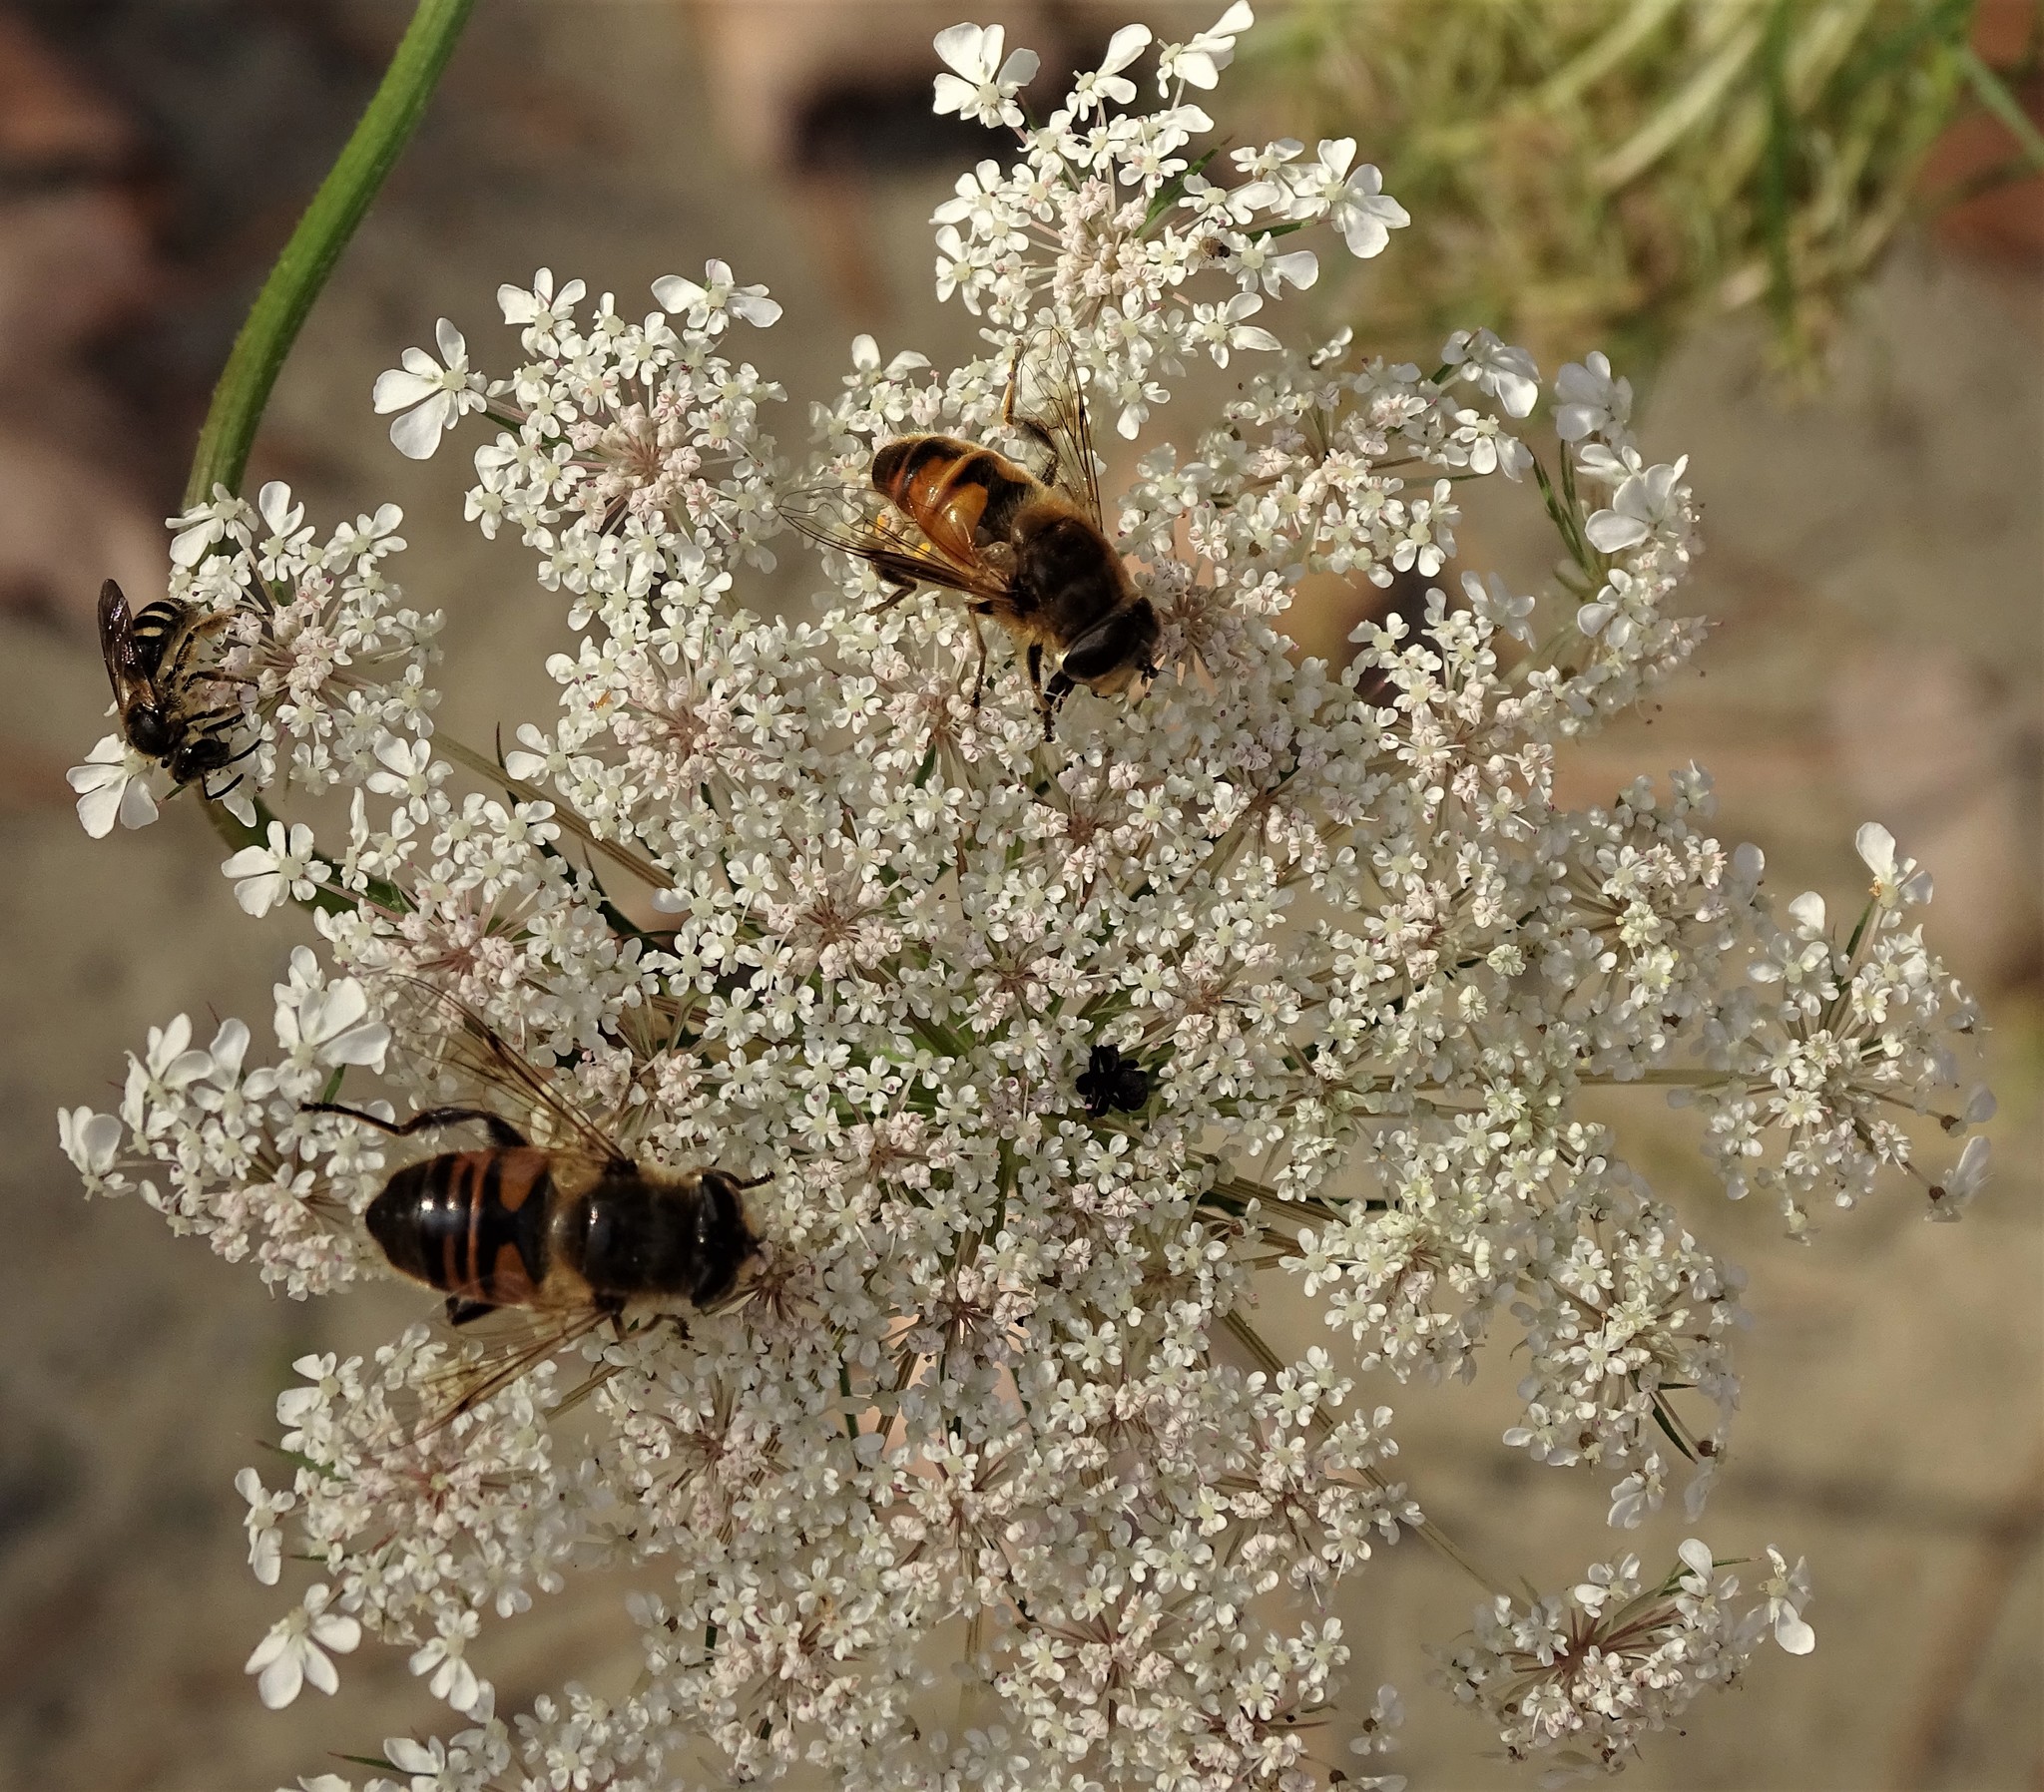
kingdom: Animalia
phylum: Arthropoda
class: Insecta
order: Diptera
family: Syrphidae
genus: Eristalis
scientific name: Eristalis tenax
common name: Drone fly
